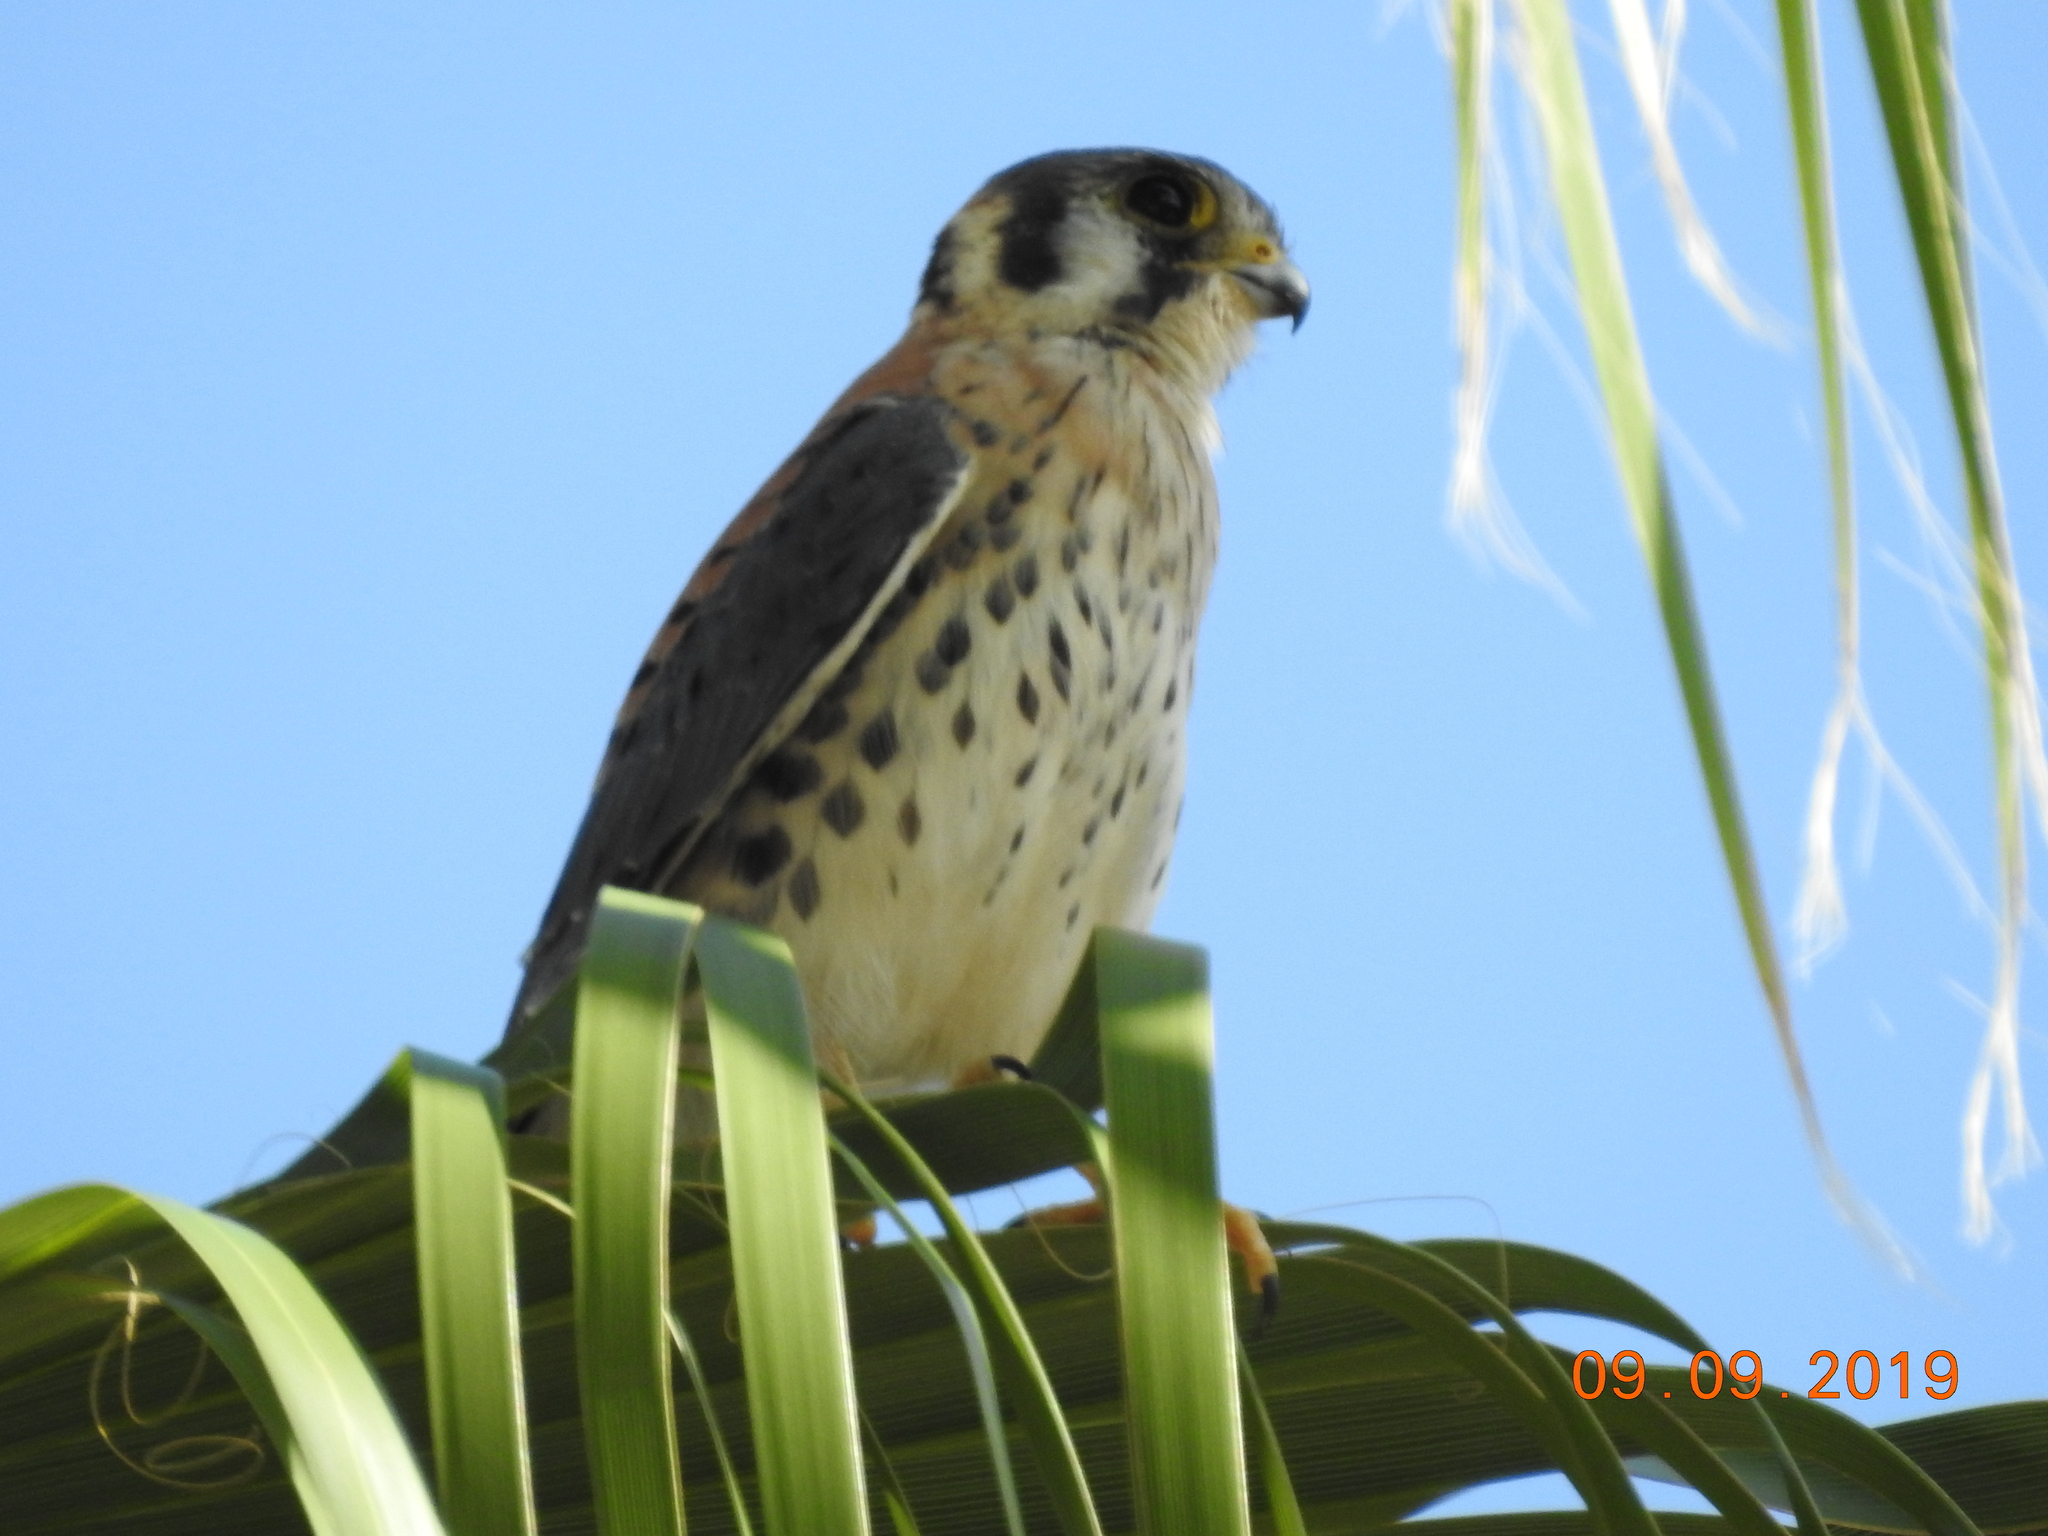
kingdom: Animalia
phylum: Chordata
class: Aves
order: Falconiformes
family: Falconidae
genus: Falco
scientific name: Falco sparverius
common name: American kestrel
